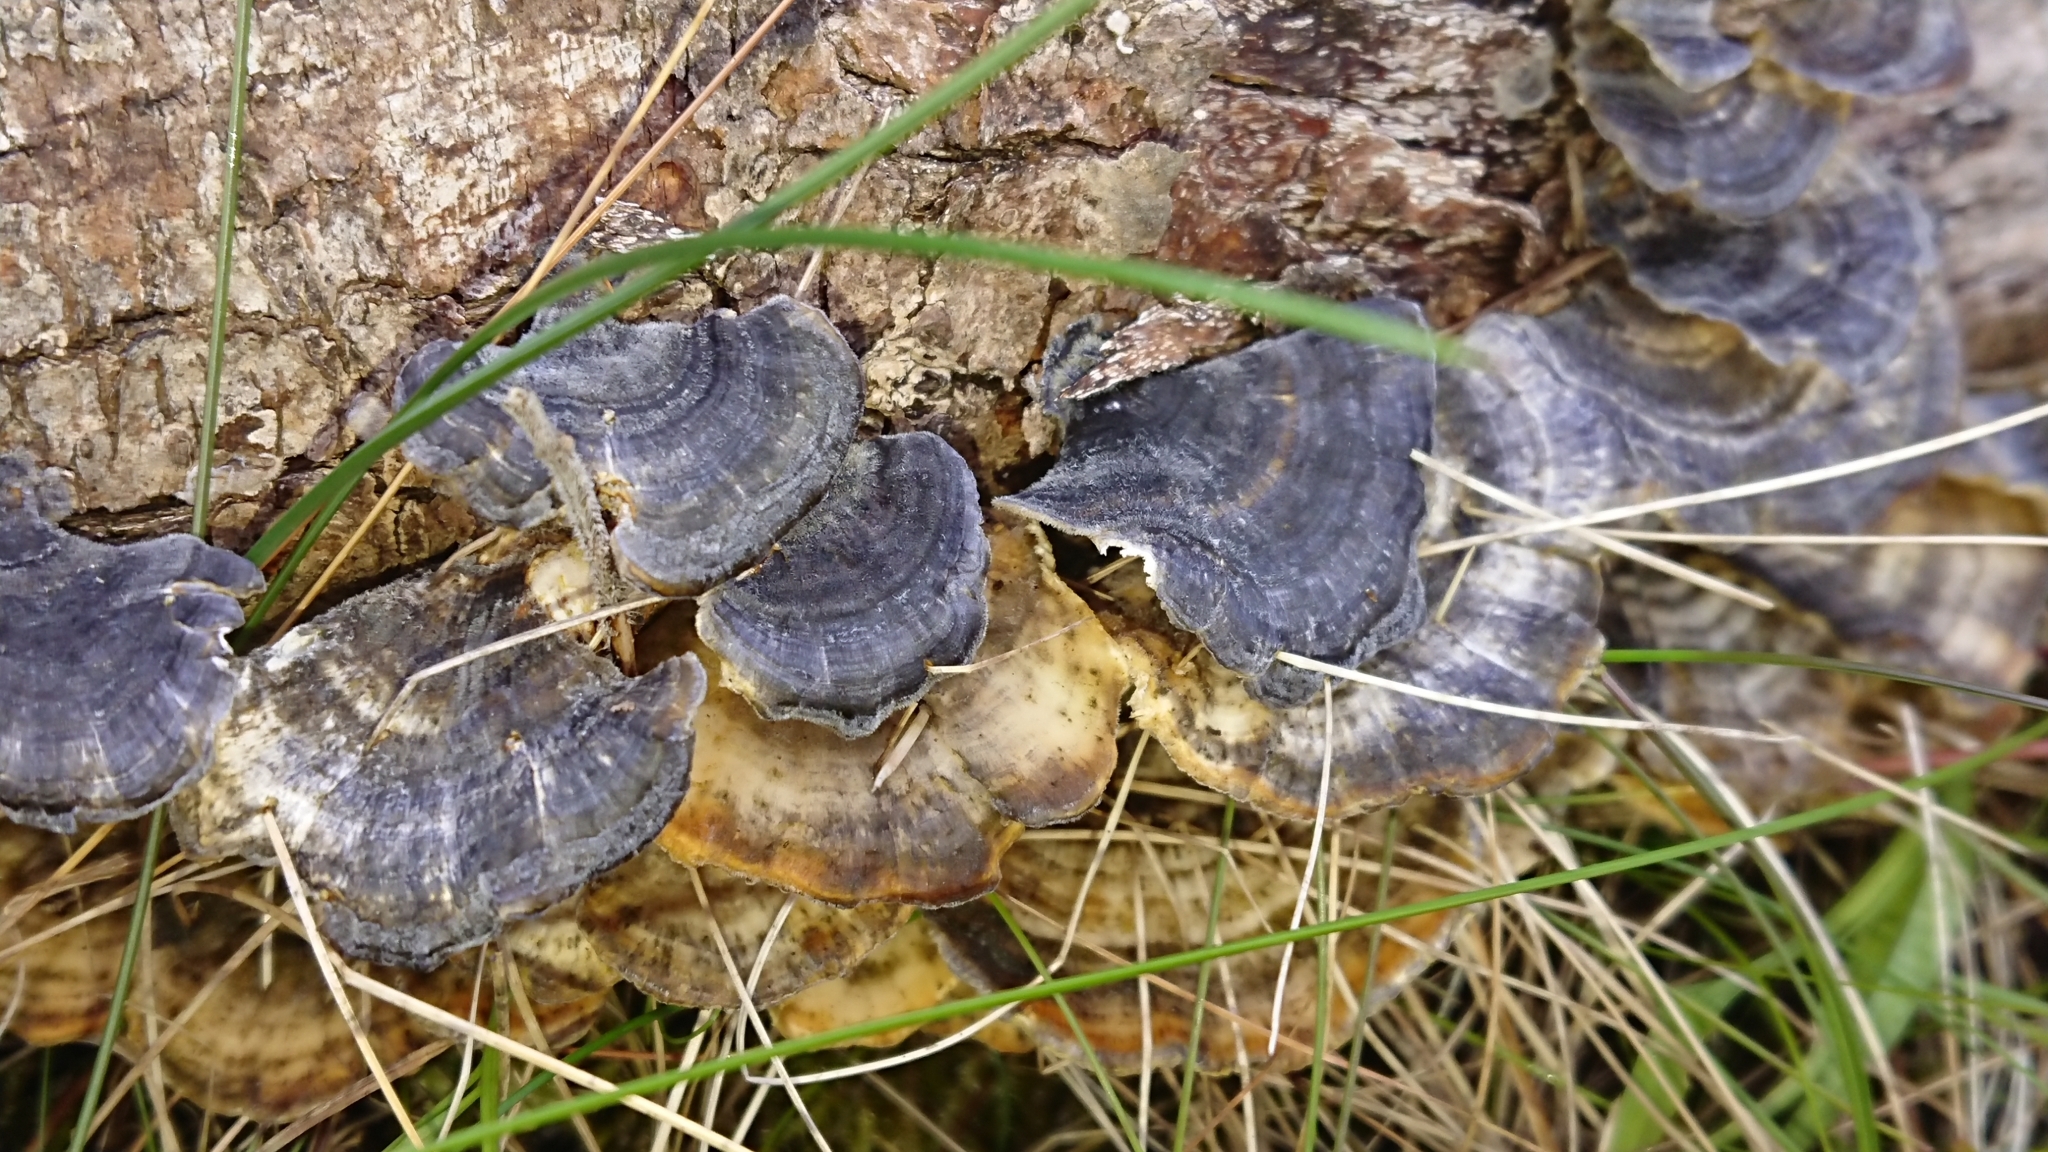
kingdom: Fungi
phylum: Basidiomycota
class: Agaricomycetes
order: Polyporales
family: Polyporaceae
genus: Trametes
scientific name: Trametes versicolor
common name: Turkeytail
